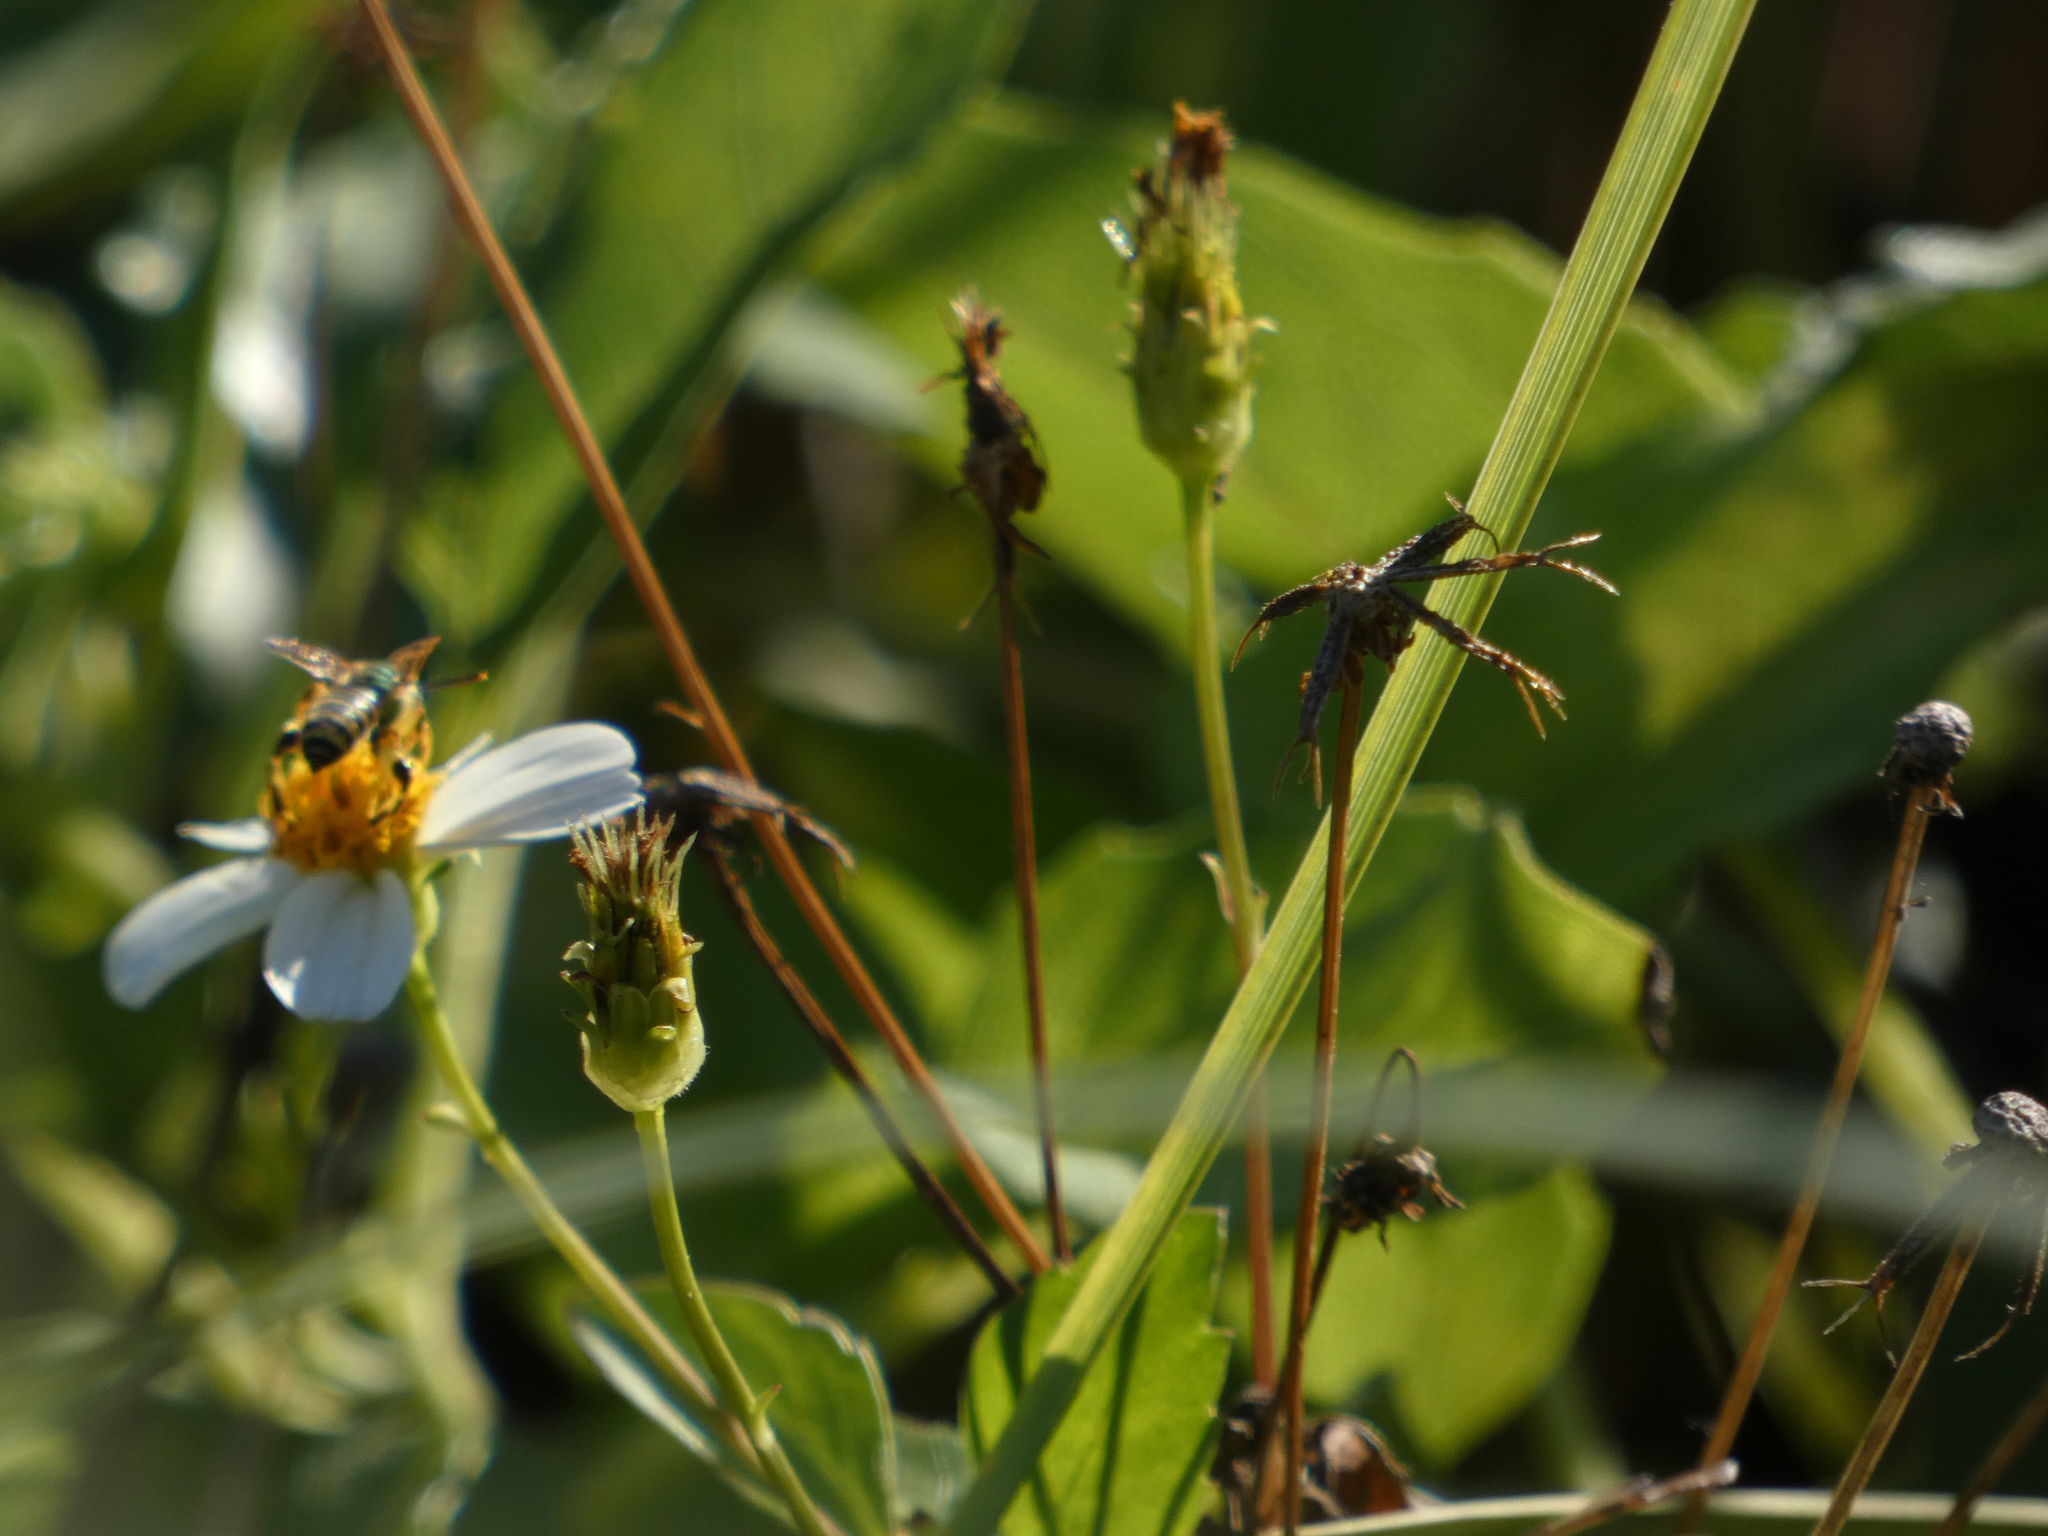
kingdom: Plantae
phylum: Tracheophyta
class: Magnoliopsida
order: Asterales
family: Asteraceae
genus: Bidens
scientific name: Bidens alba
